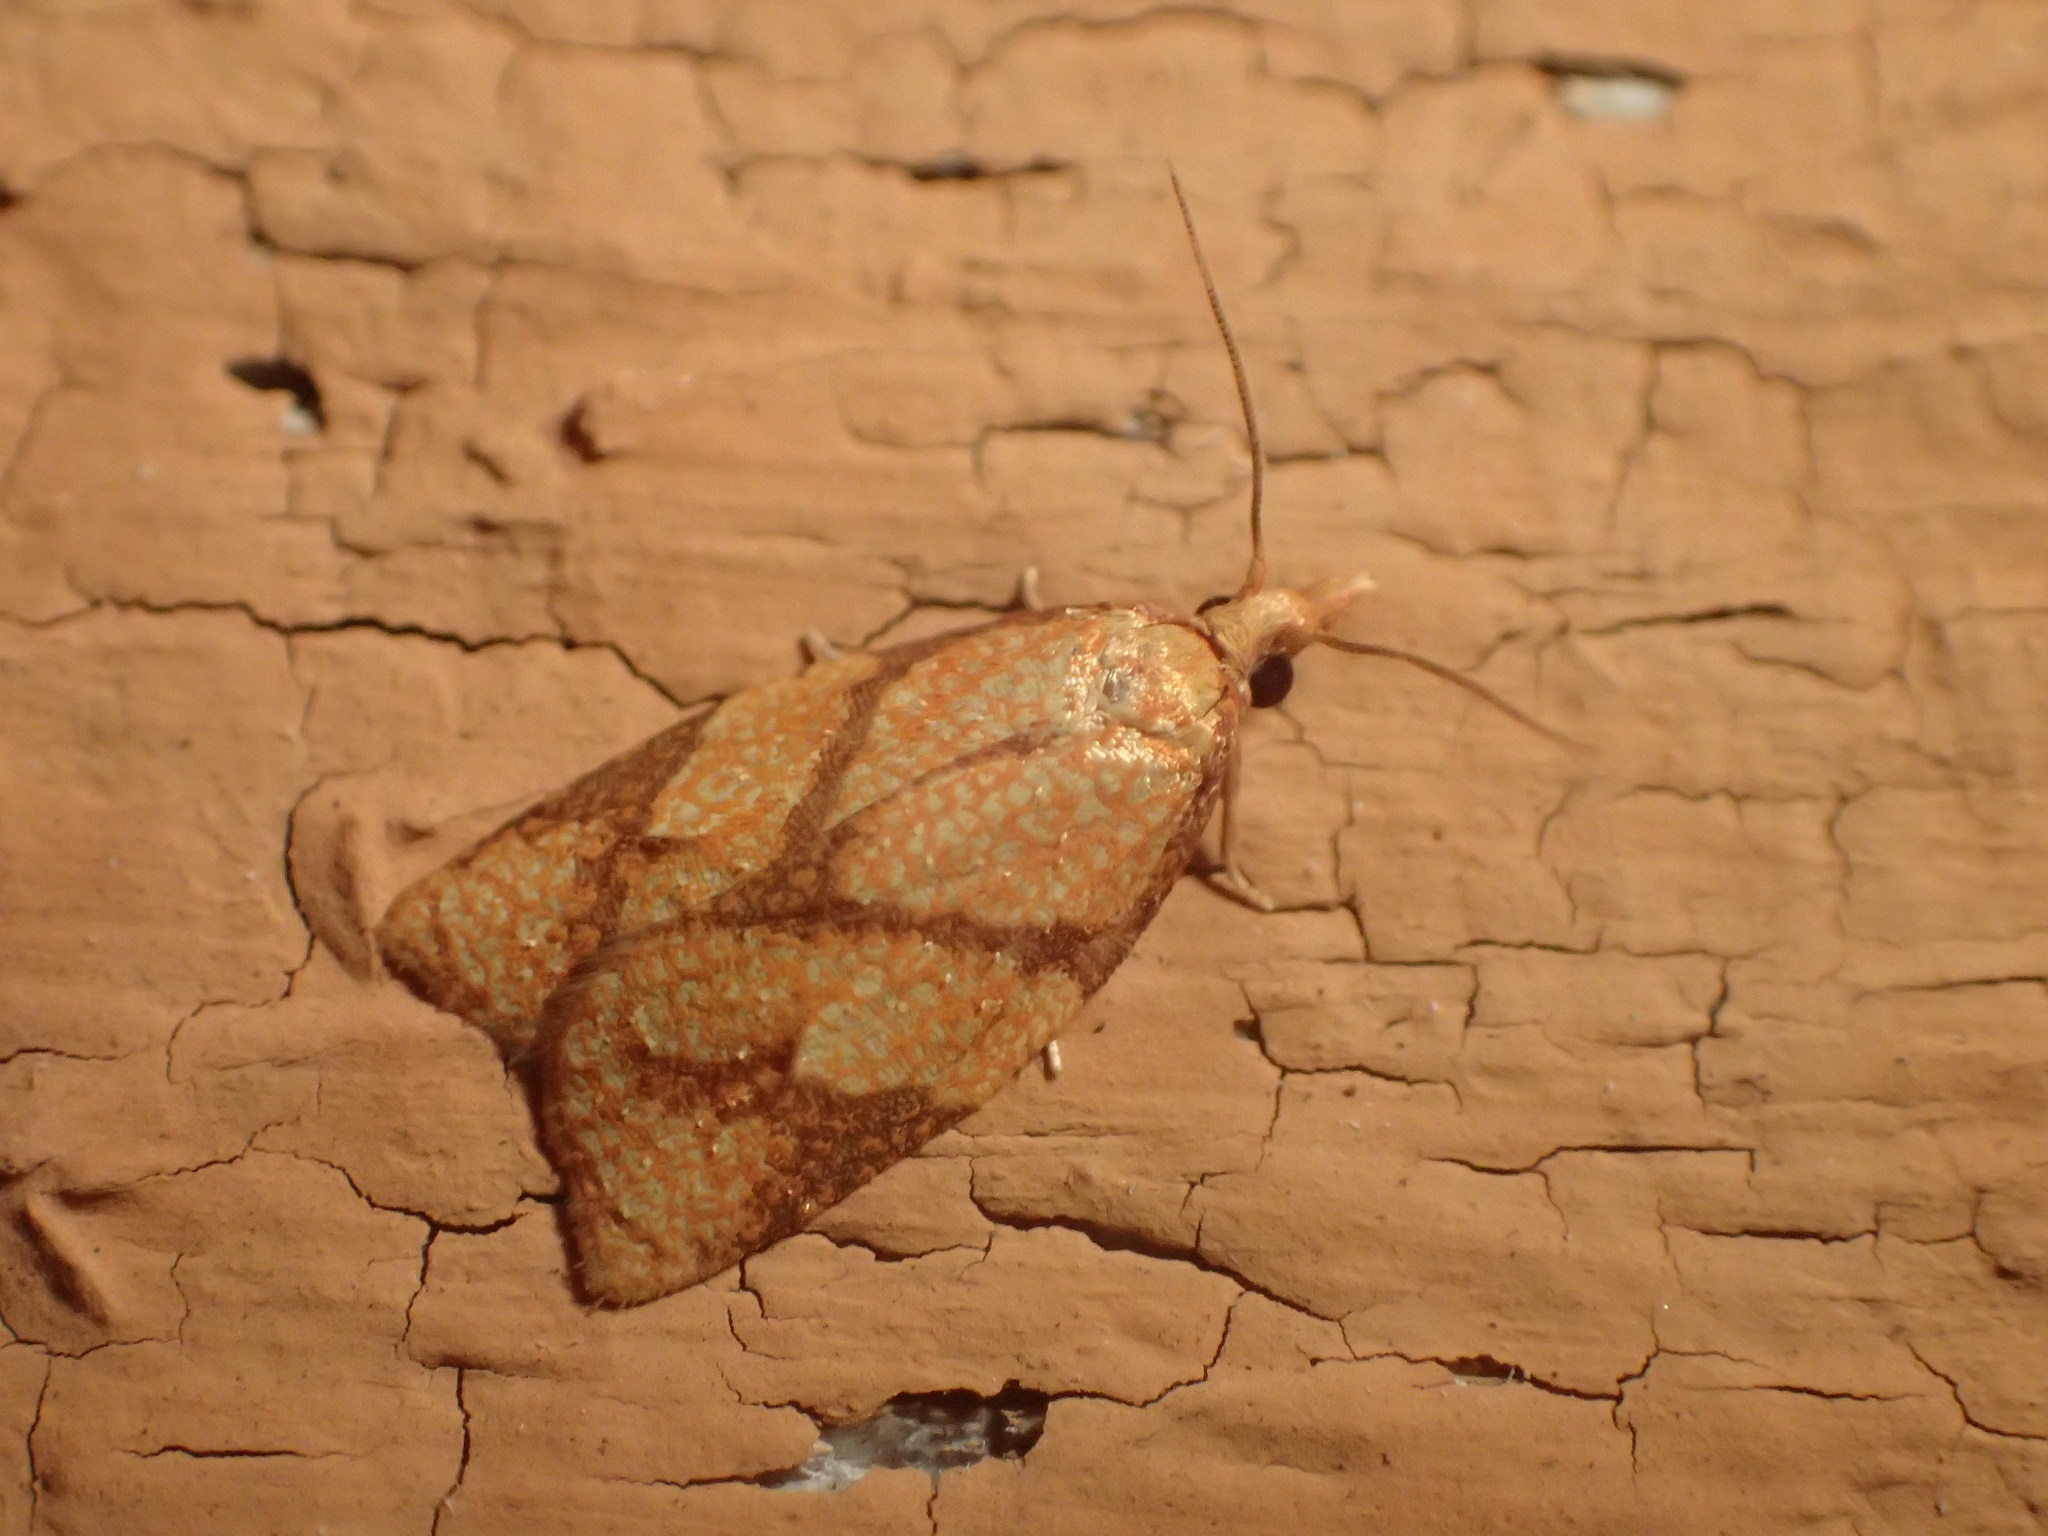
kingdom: Animalia
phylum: Arthropoda
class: Insecta
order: Lepidoptera
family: Tortricidae
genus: Cenopis
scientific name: Cenopis reticulatana
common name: Reticulated fruitworm moth
